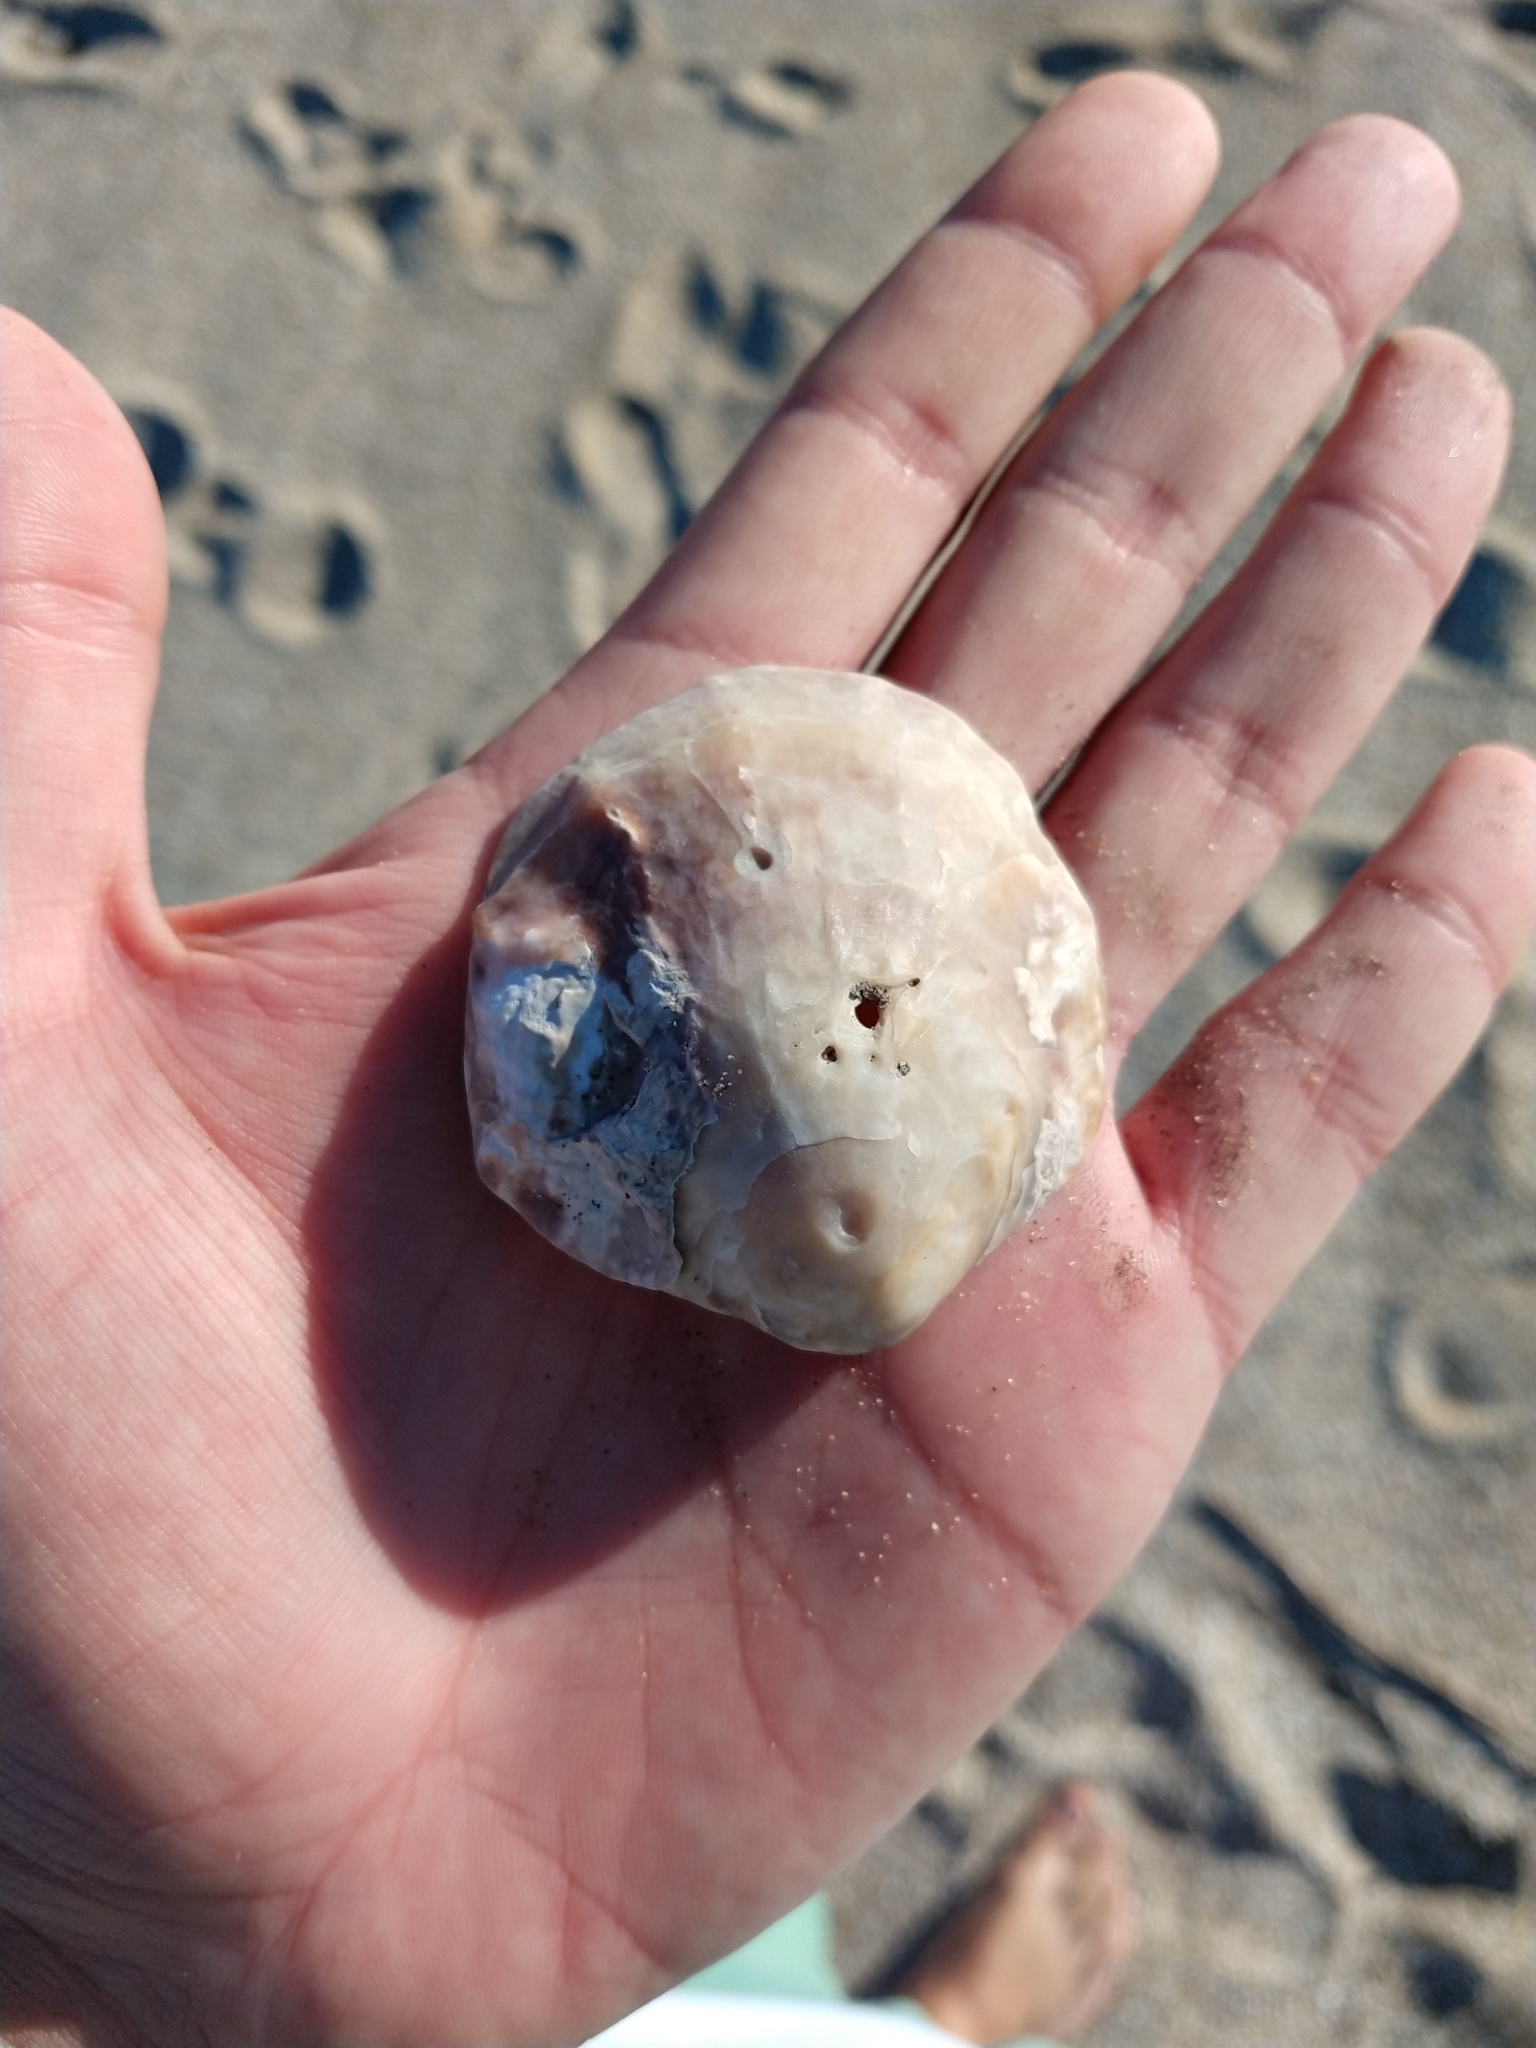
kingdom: Animalia
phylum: Mollusca
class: Bivalvia
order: Ostreida
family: Ostreidae
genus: Ostrea
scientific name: Ostrea puelchana
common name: Argentine flat oyster
